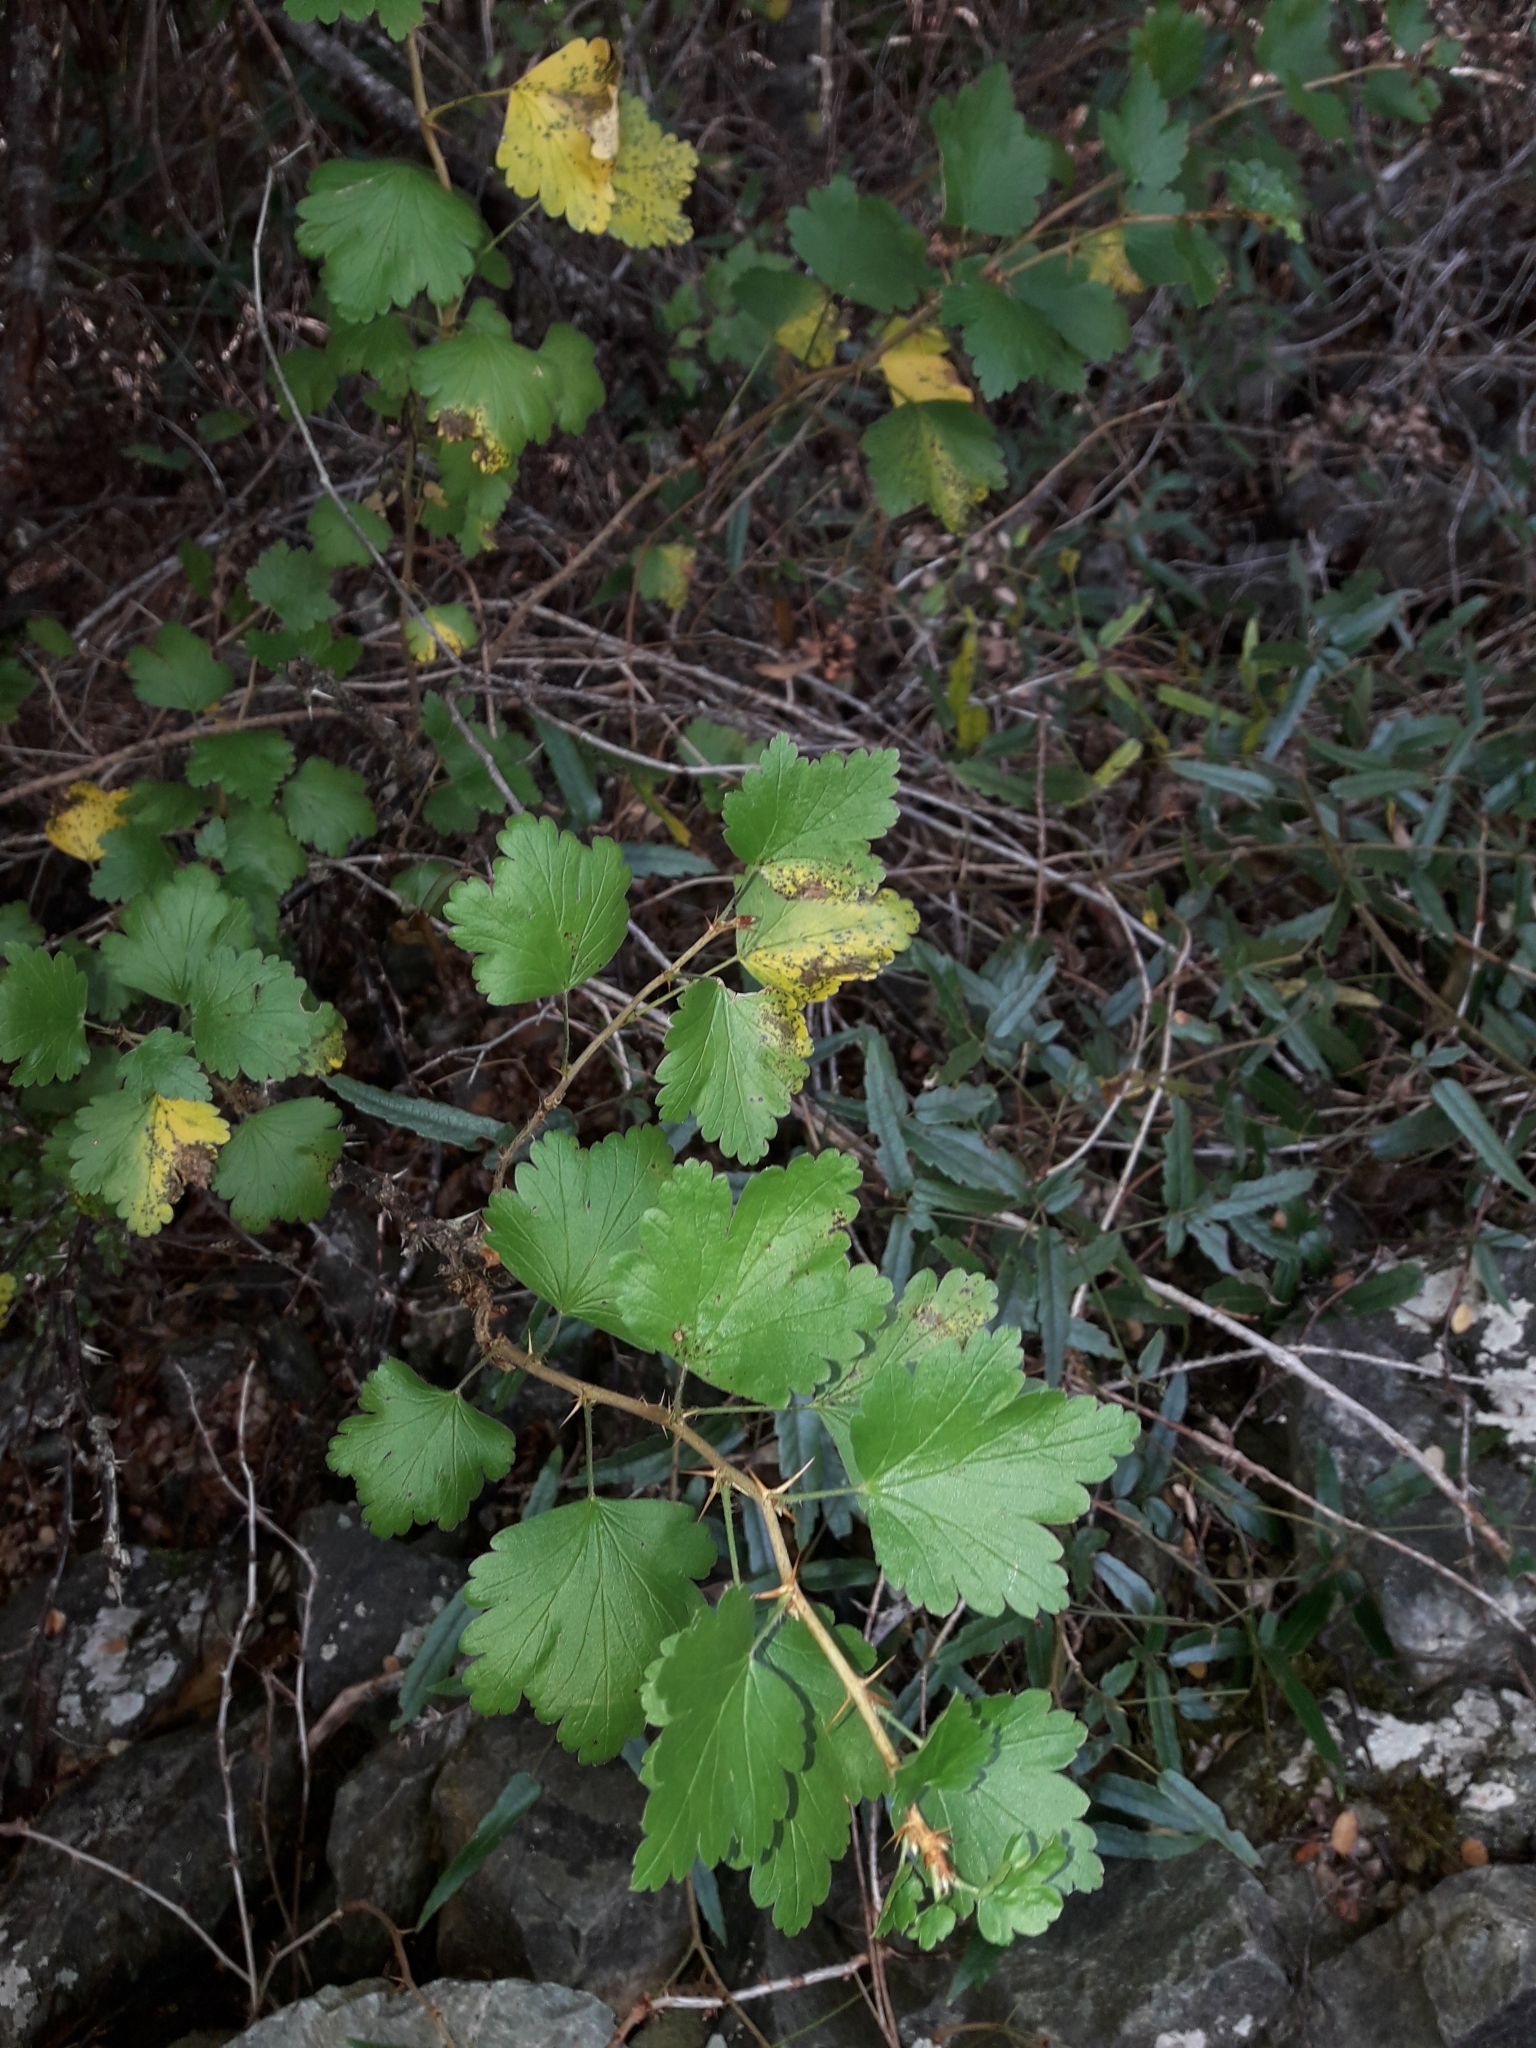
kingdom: Plantae
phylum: Tracheophyta
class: Magnoliopsida
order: Saxifragales
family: Grossulariaceae
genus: Ribes
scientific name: Ribes uva-crispa
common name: Gooseberry
